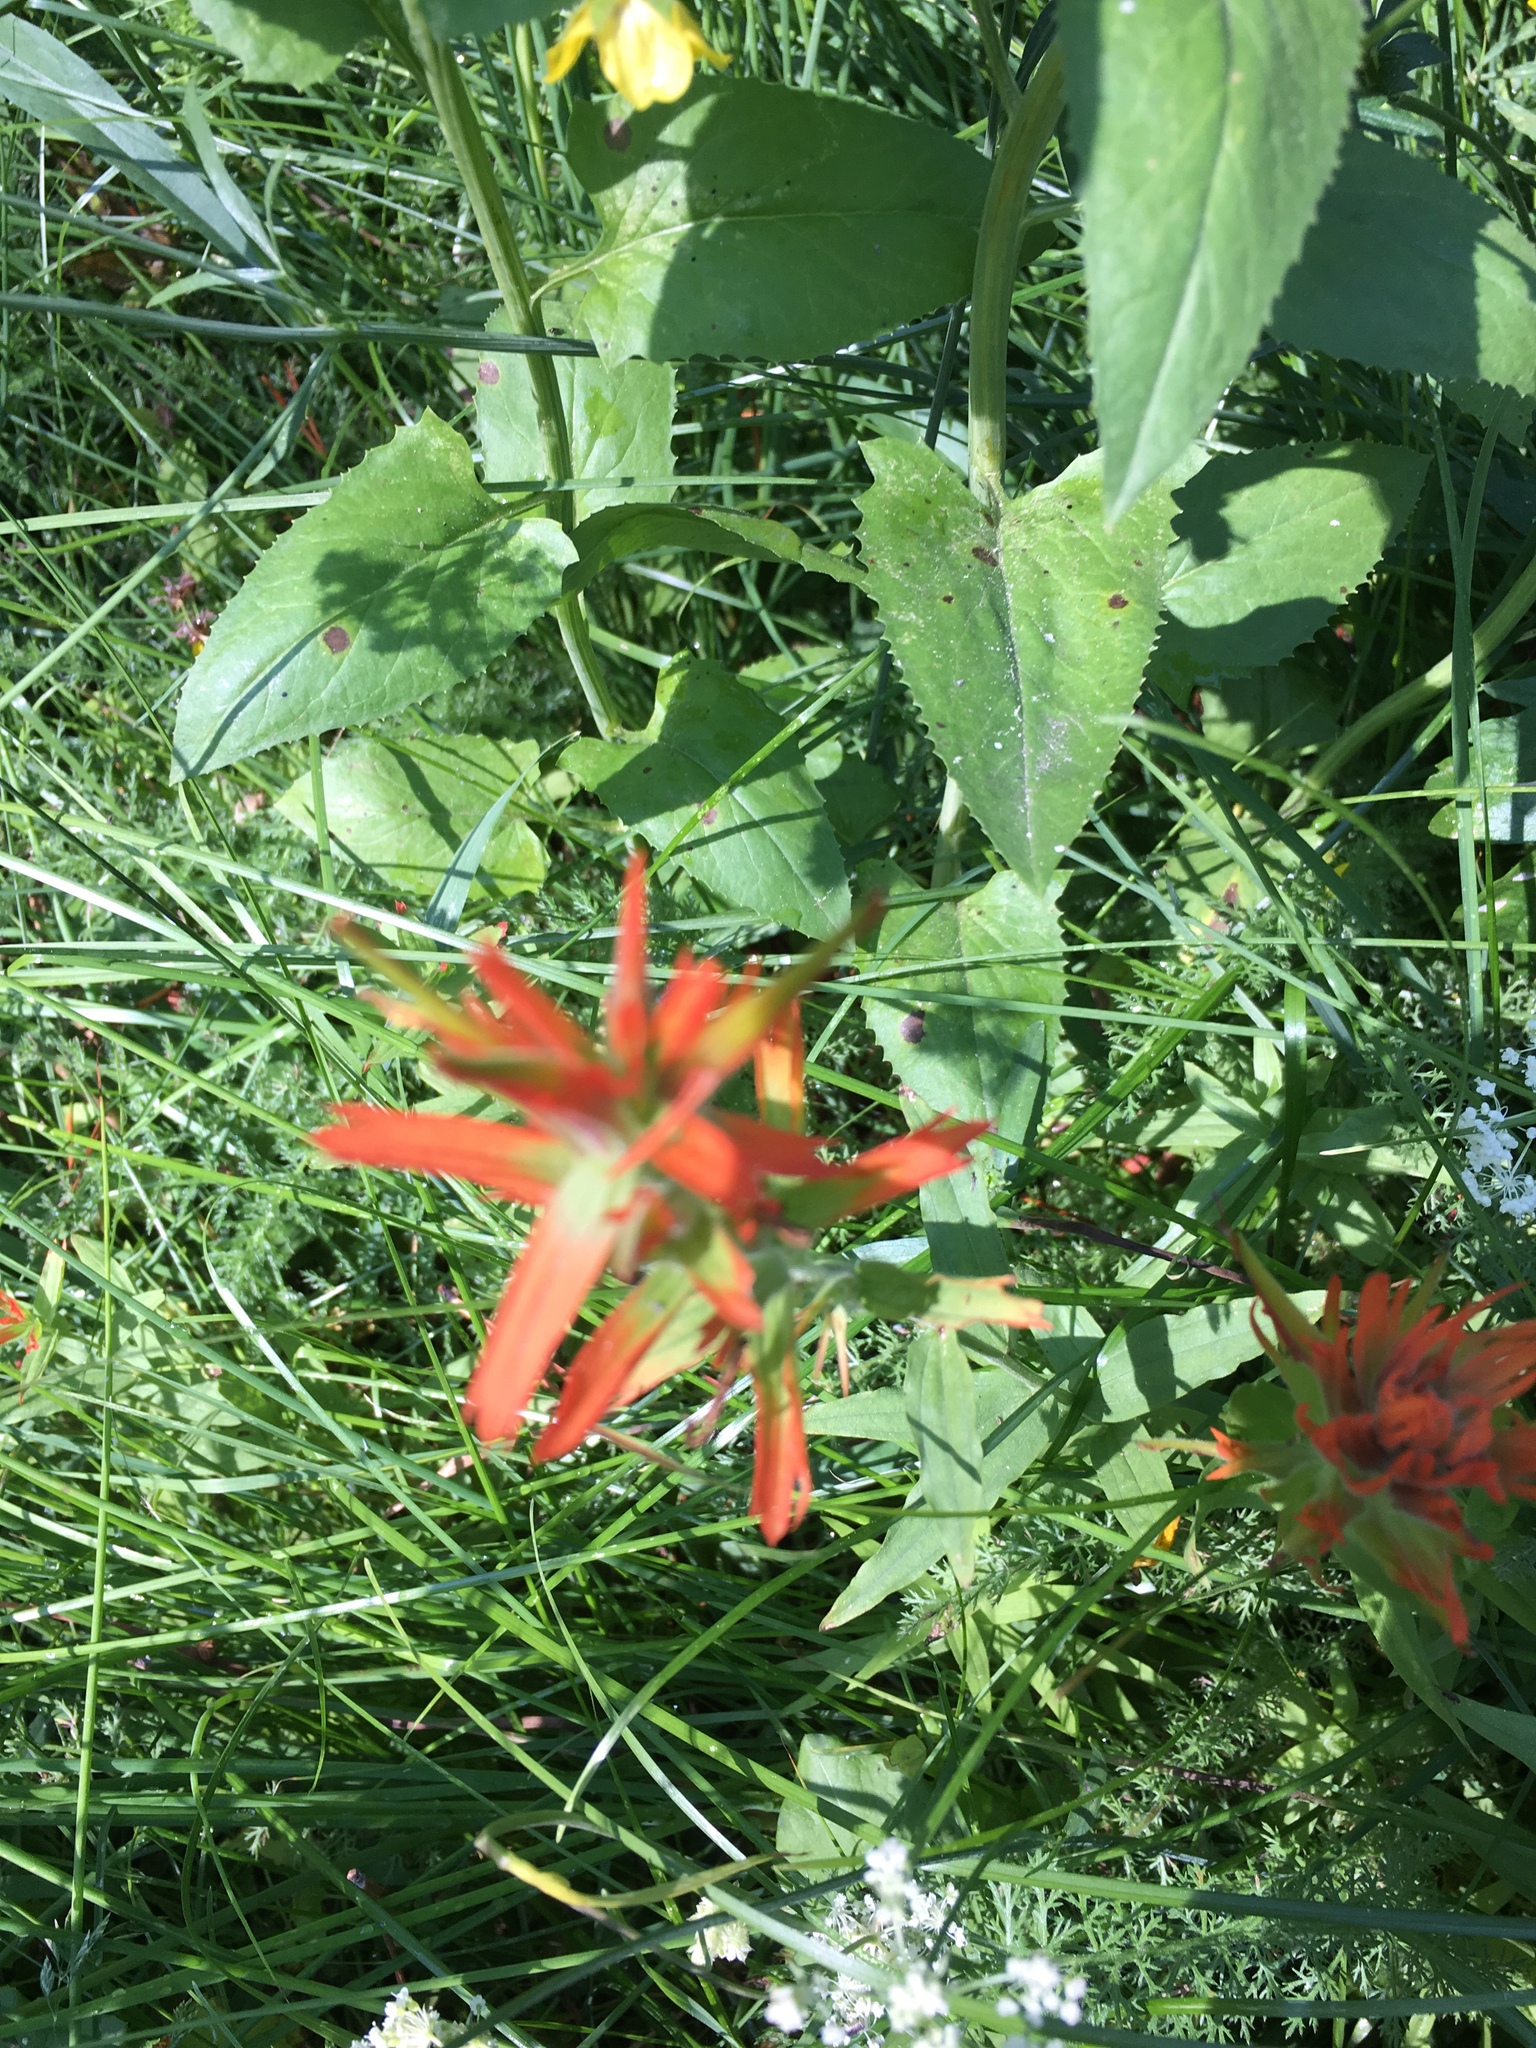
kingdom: Plantae
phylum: Tracheophyta
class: Magnoliopsida
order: Lamiales
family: Orobanchaceae
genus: Castilleja
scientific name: Castilleja miniata
